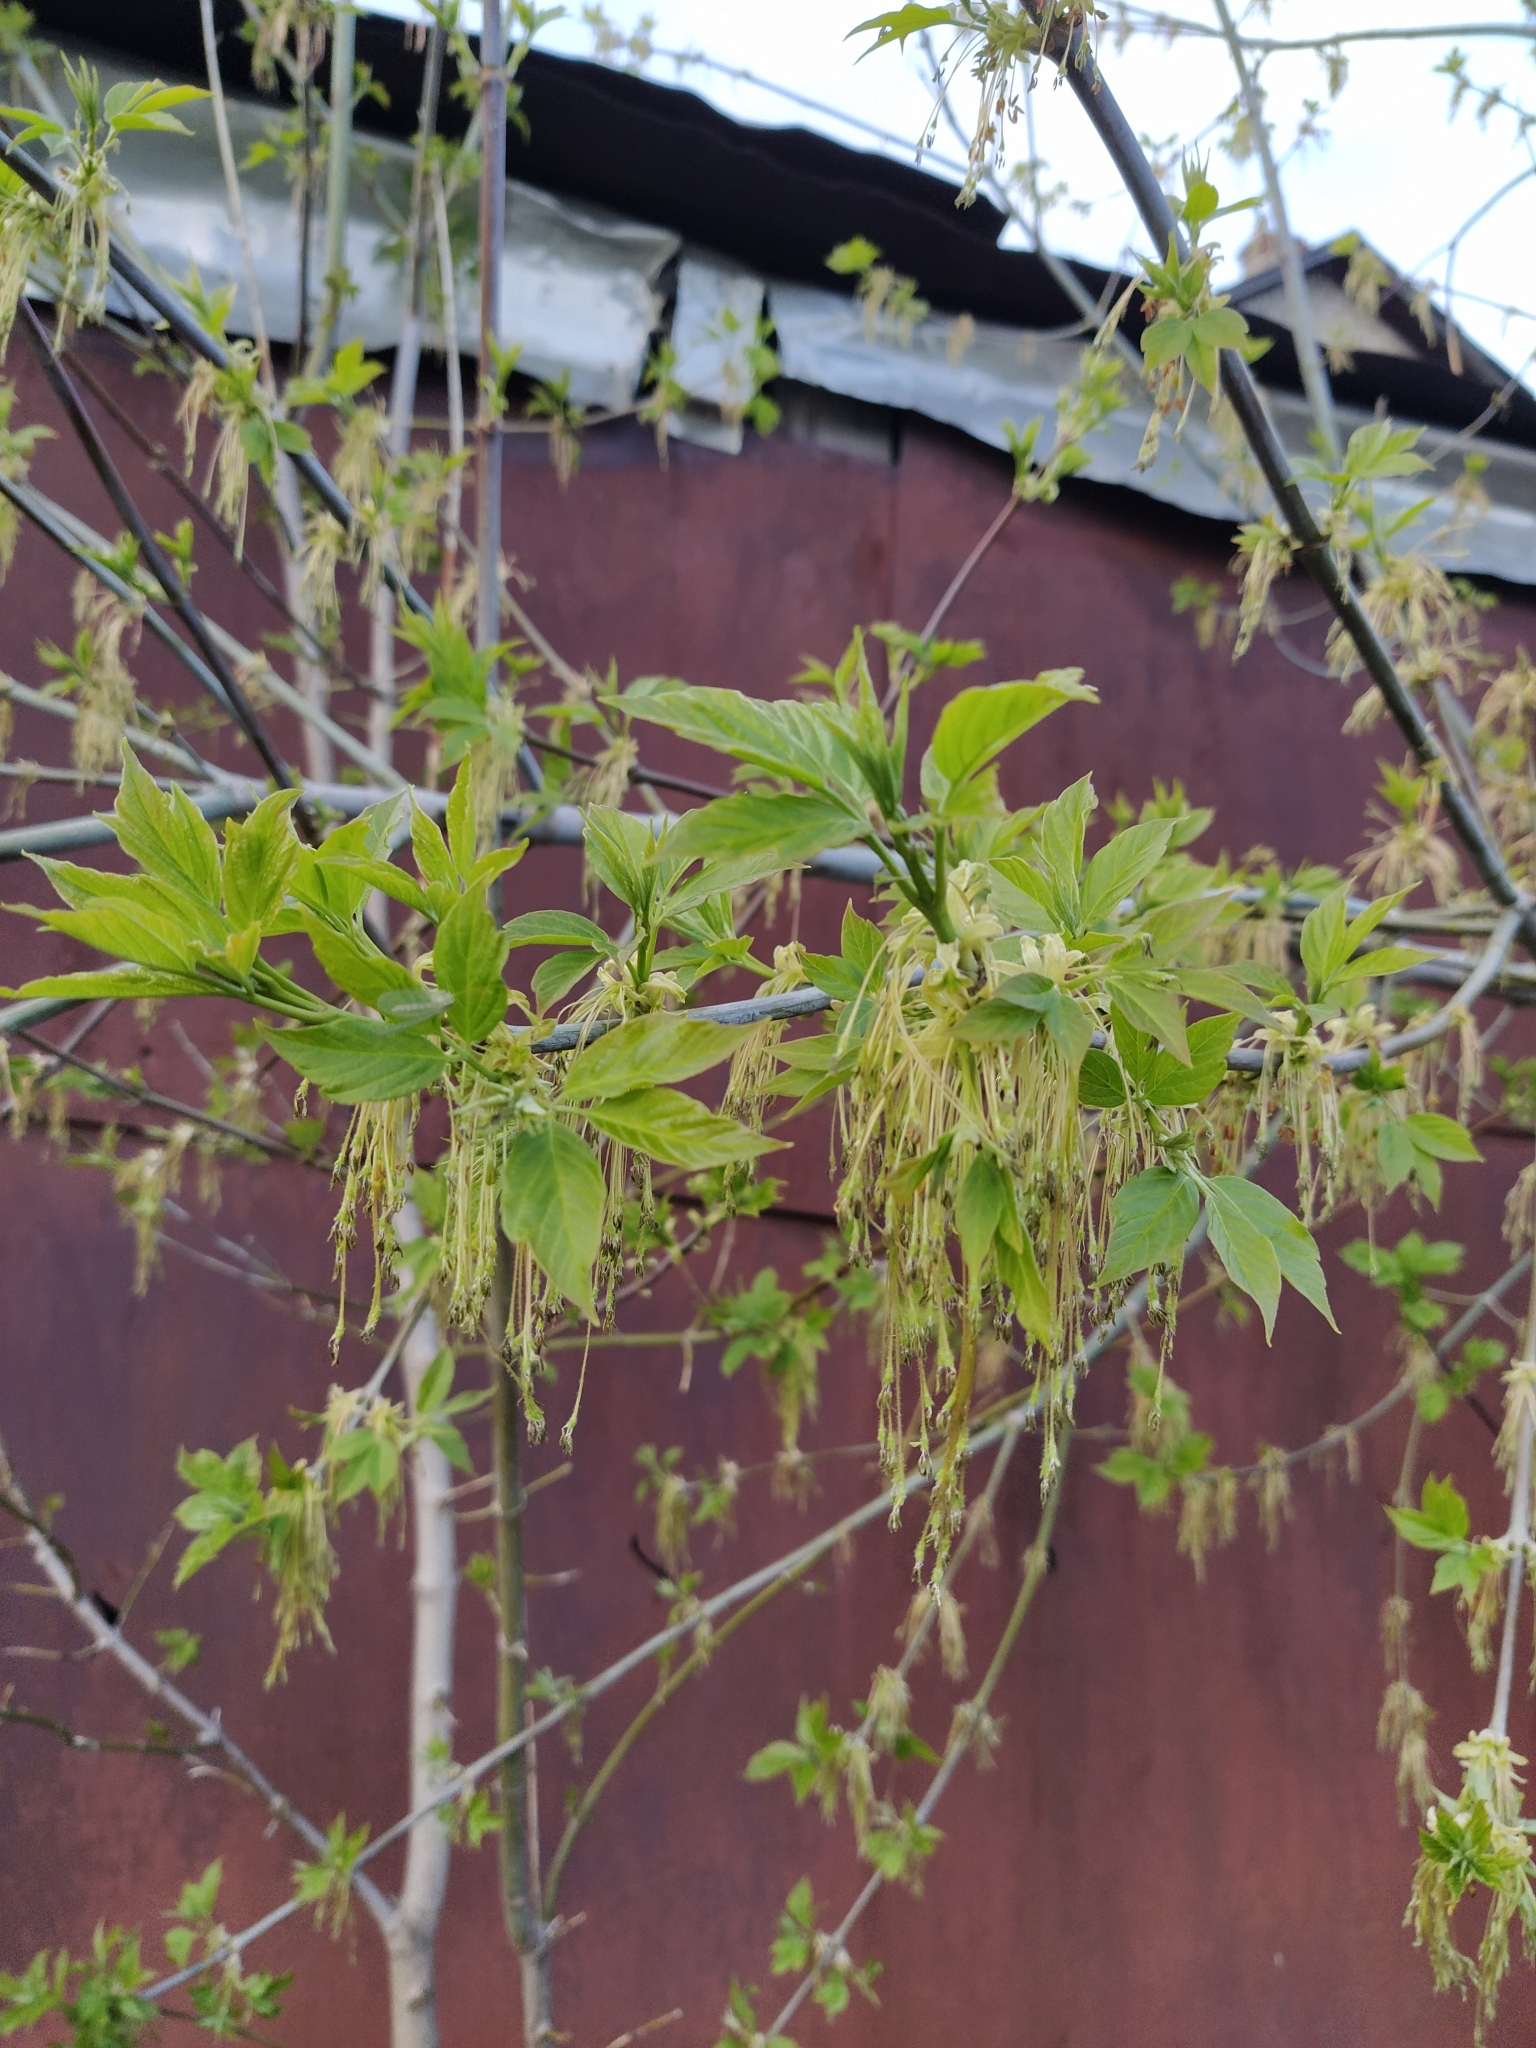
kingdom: Plantae
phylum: Tracheophyta
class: Magnoliopsida
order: Sapindales
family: Sapindaceae
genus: Acer
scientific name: Acer negundo
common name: Ashleaf maple
